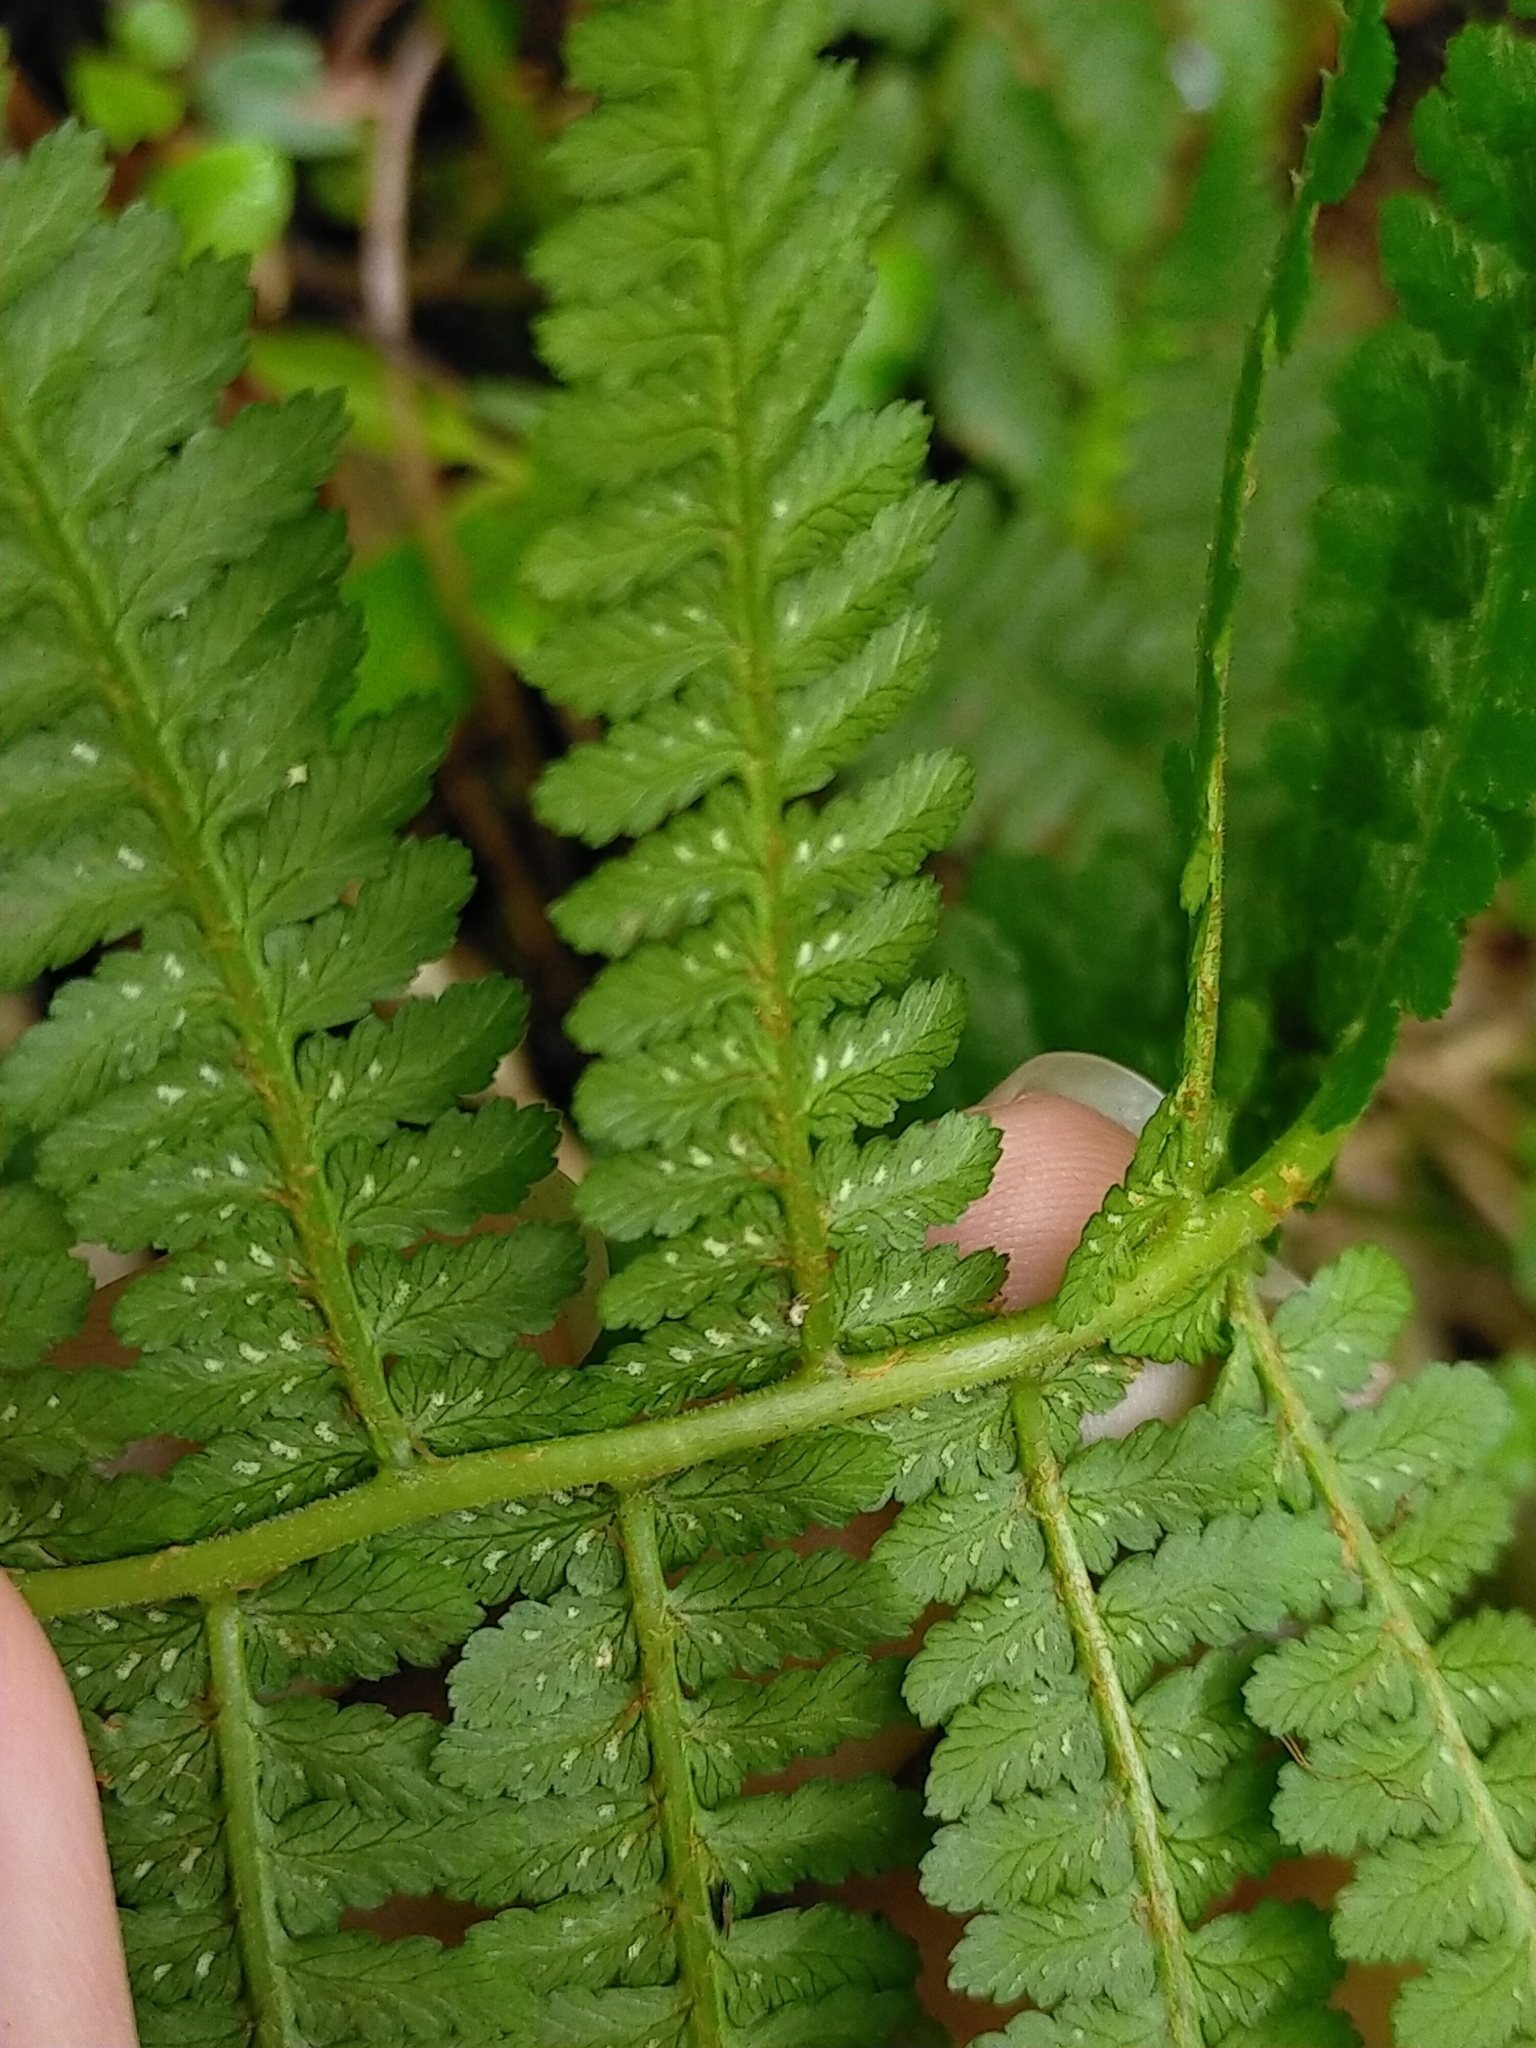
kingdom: Plantae
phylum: Tracheophyta
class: Polypodiopsida
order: Polypodiales
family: Athyriaceae
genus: Athyrium
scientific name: Athyrium oppositipennum
